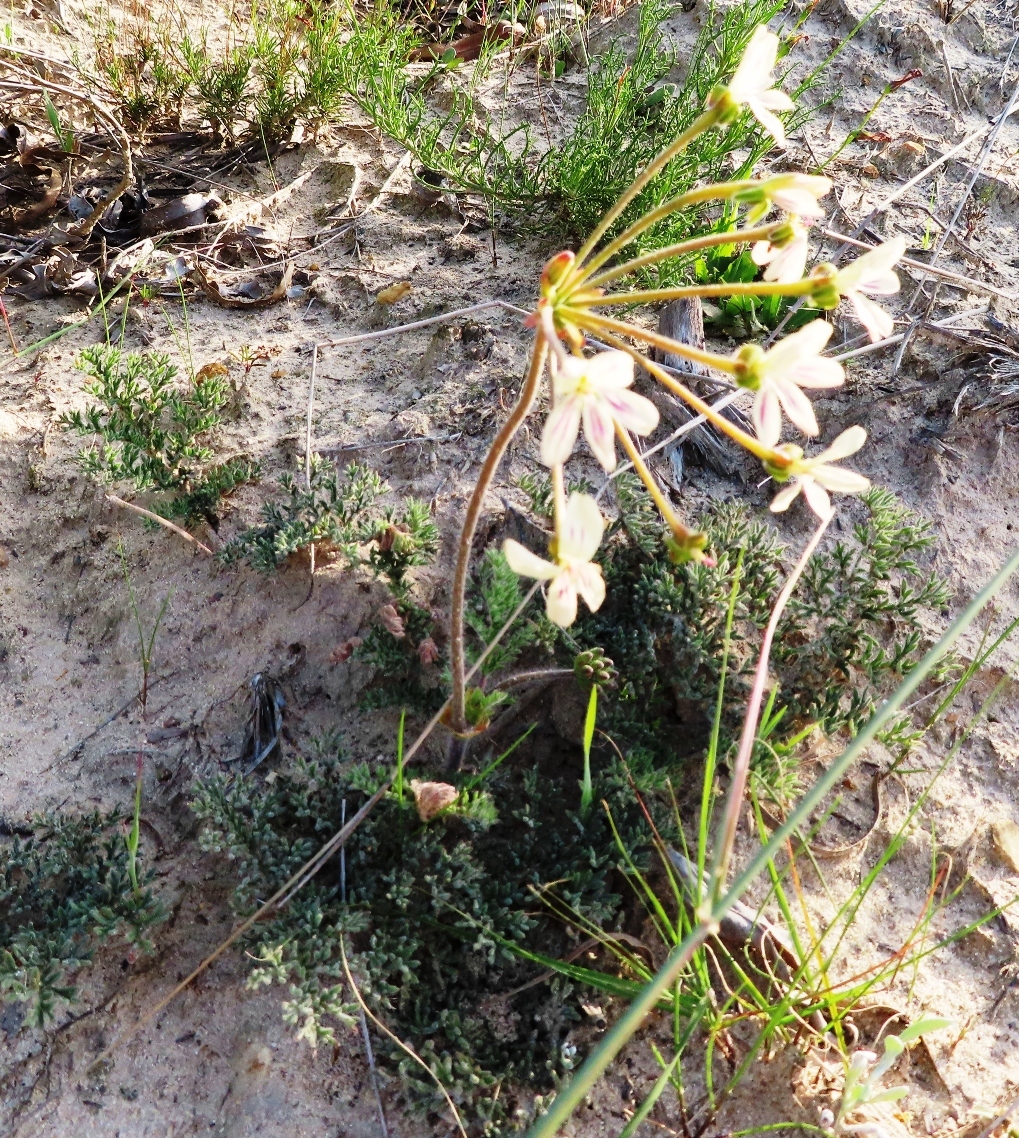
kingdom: Plantae
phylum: Tracheophyta
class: Magnoliopsida
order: Geraniales
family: Geraniaceae
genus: Pelargonium
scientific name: Pelargonium triste
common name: Night-scent pelargonium
